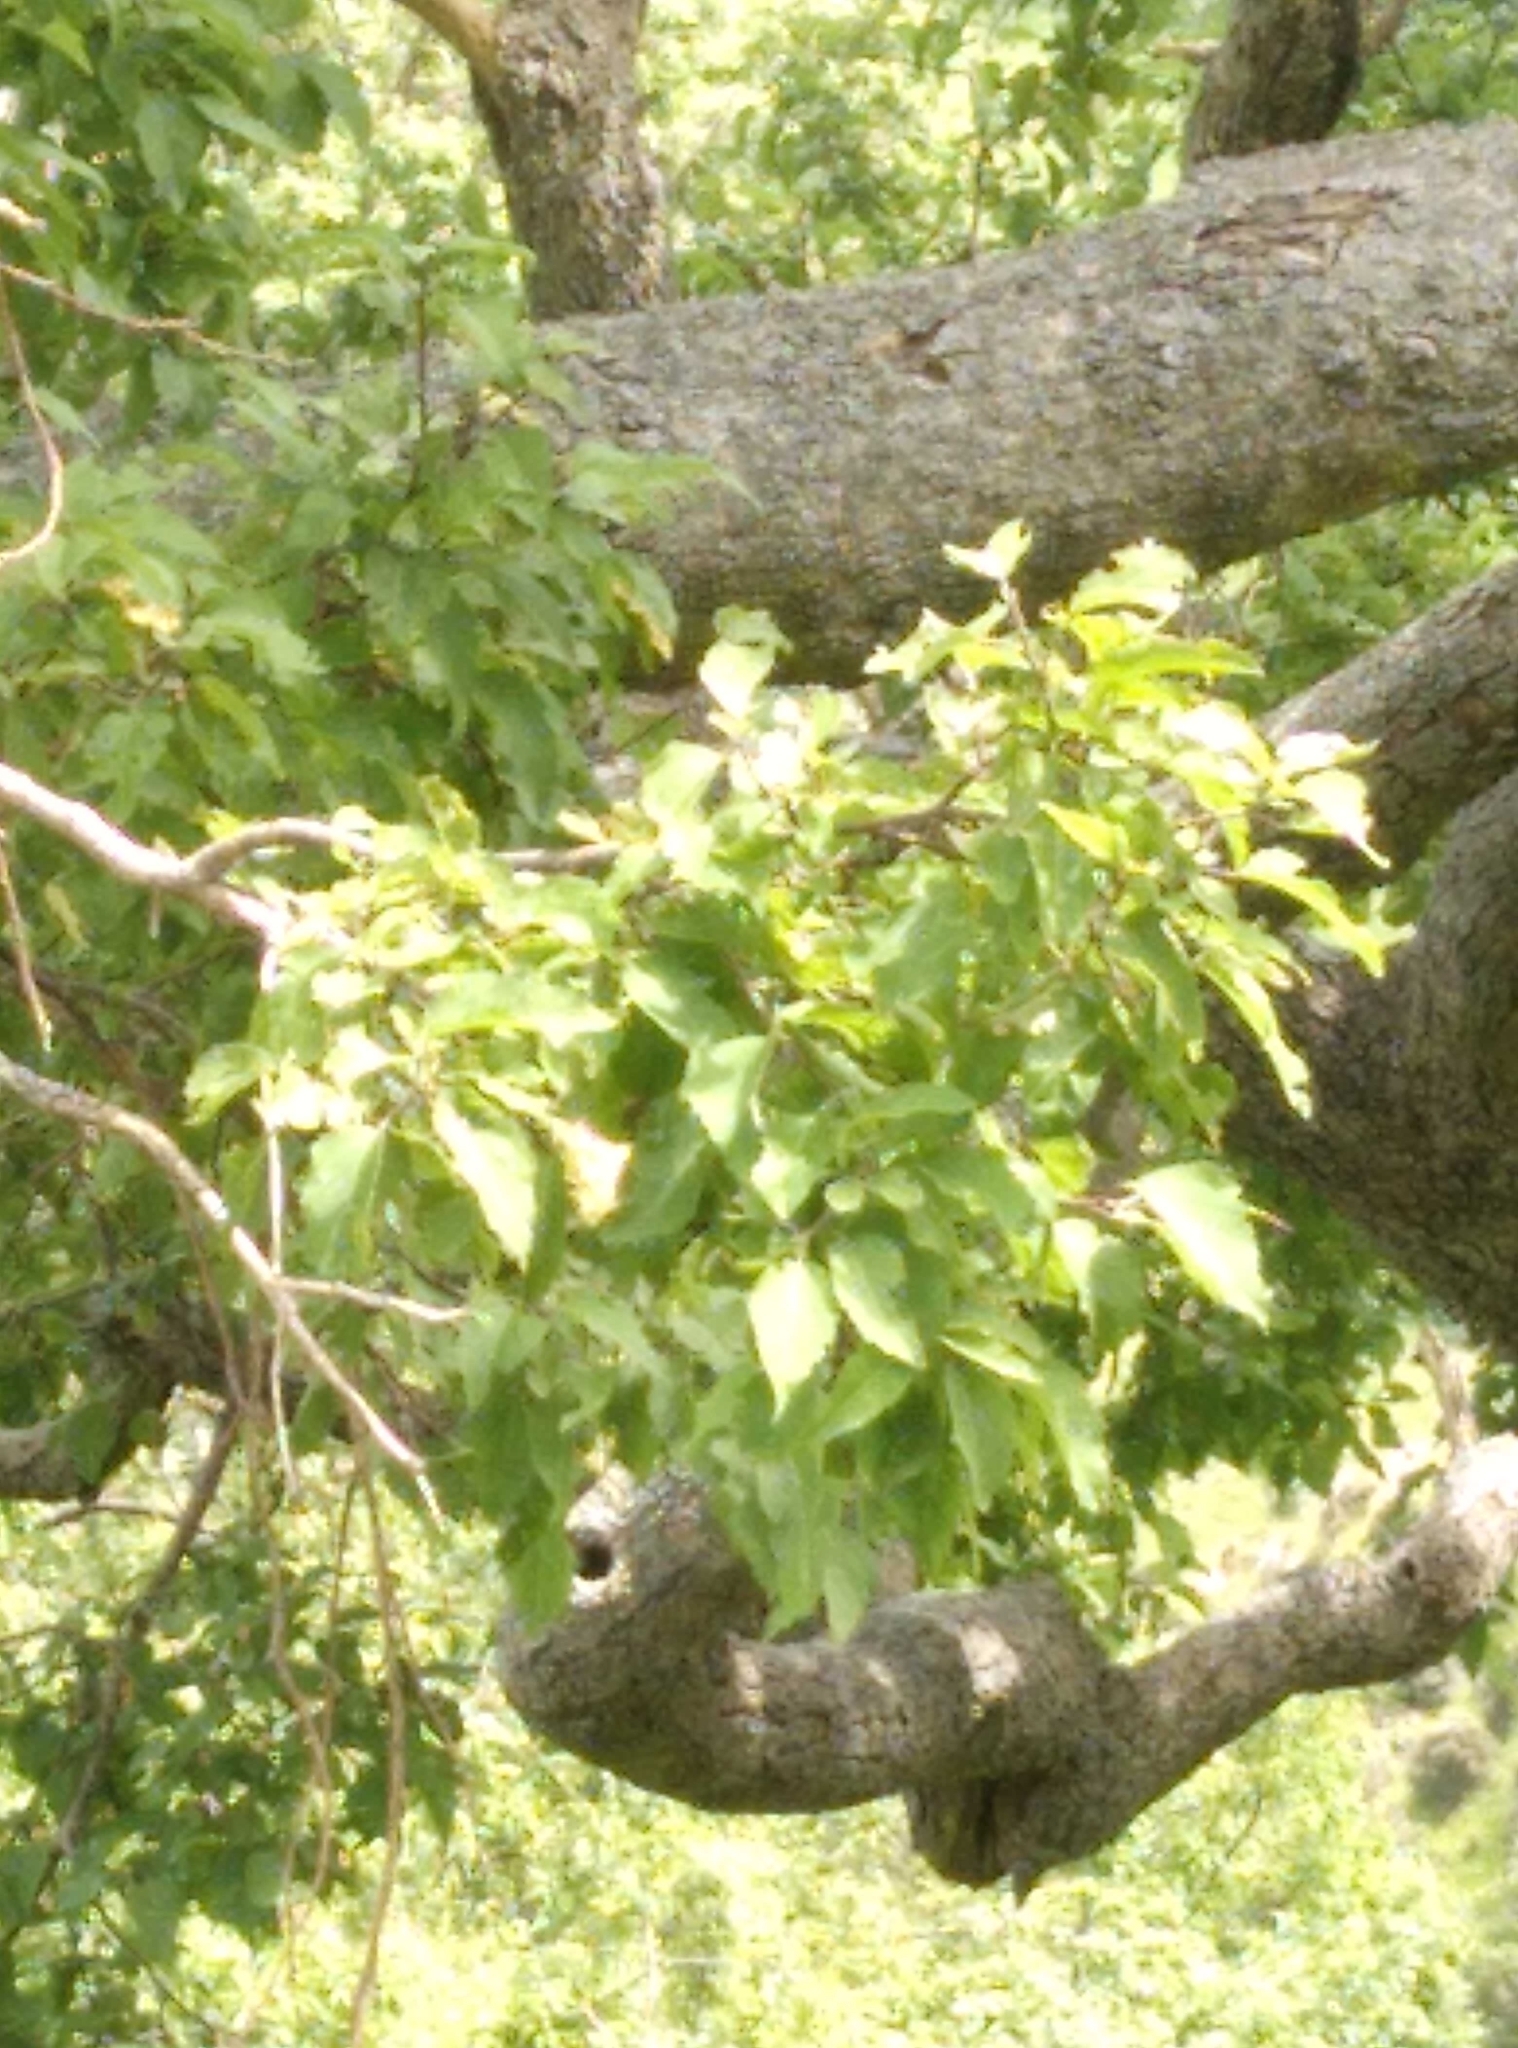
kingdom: Plantae
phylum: Tracheophyta
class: Magnoliopsida
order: Malvales
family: Malvaceae
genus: Plagianthus
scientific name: Plagianthus regius
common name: Manatu
